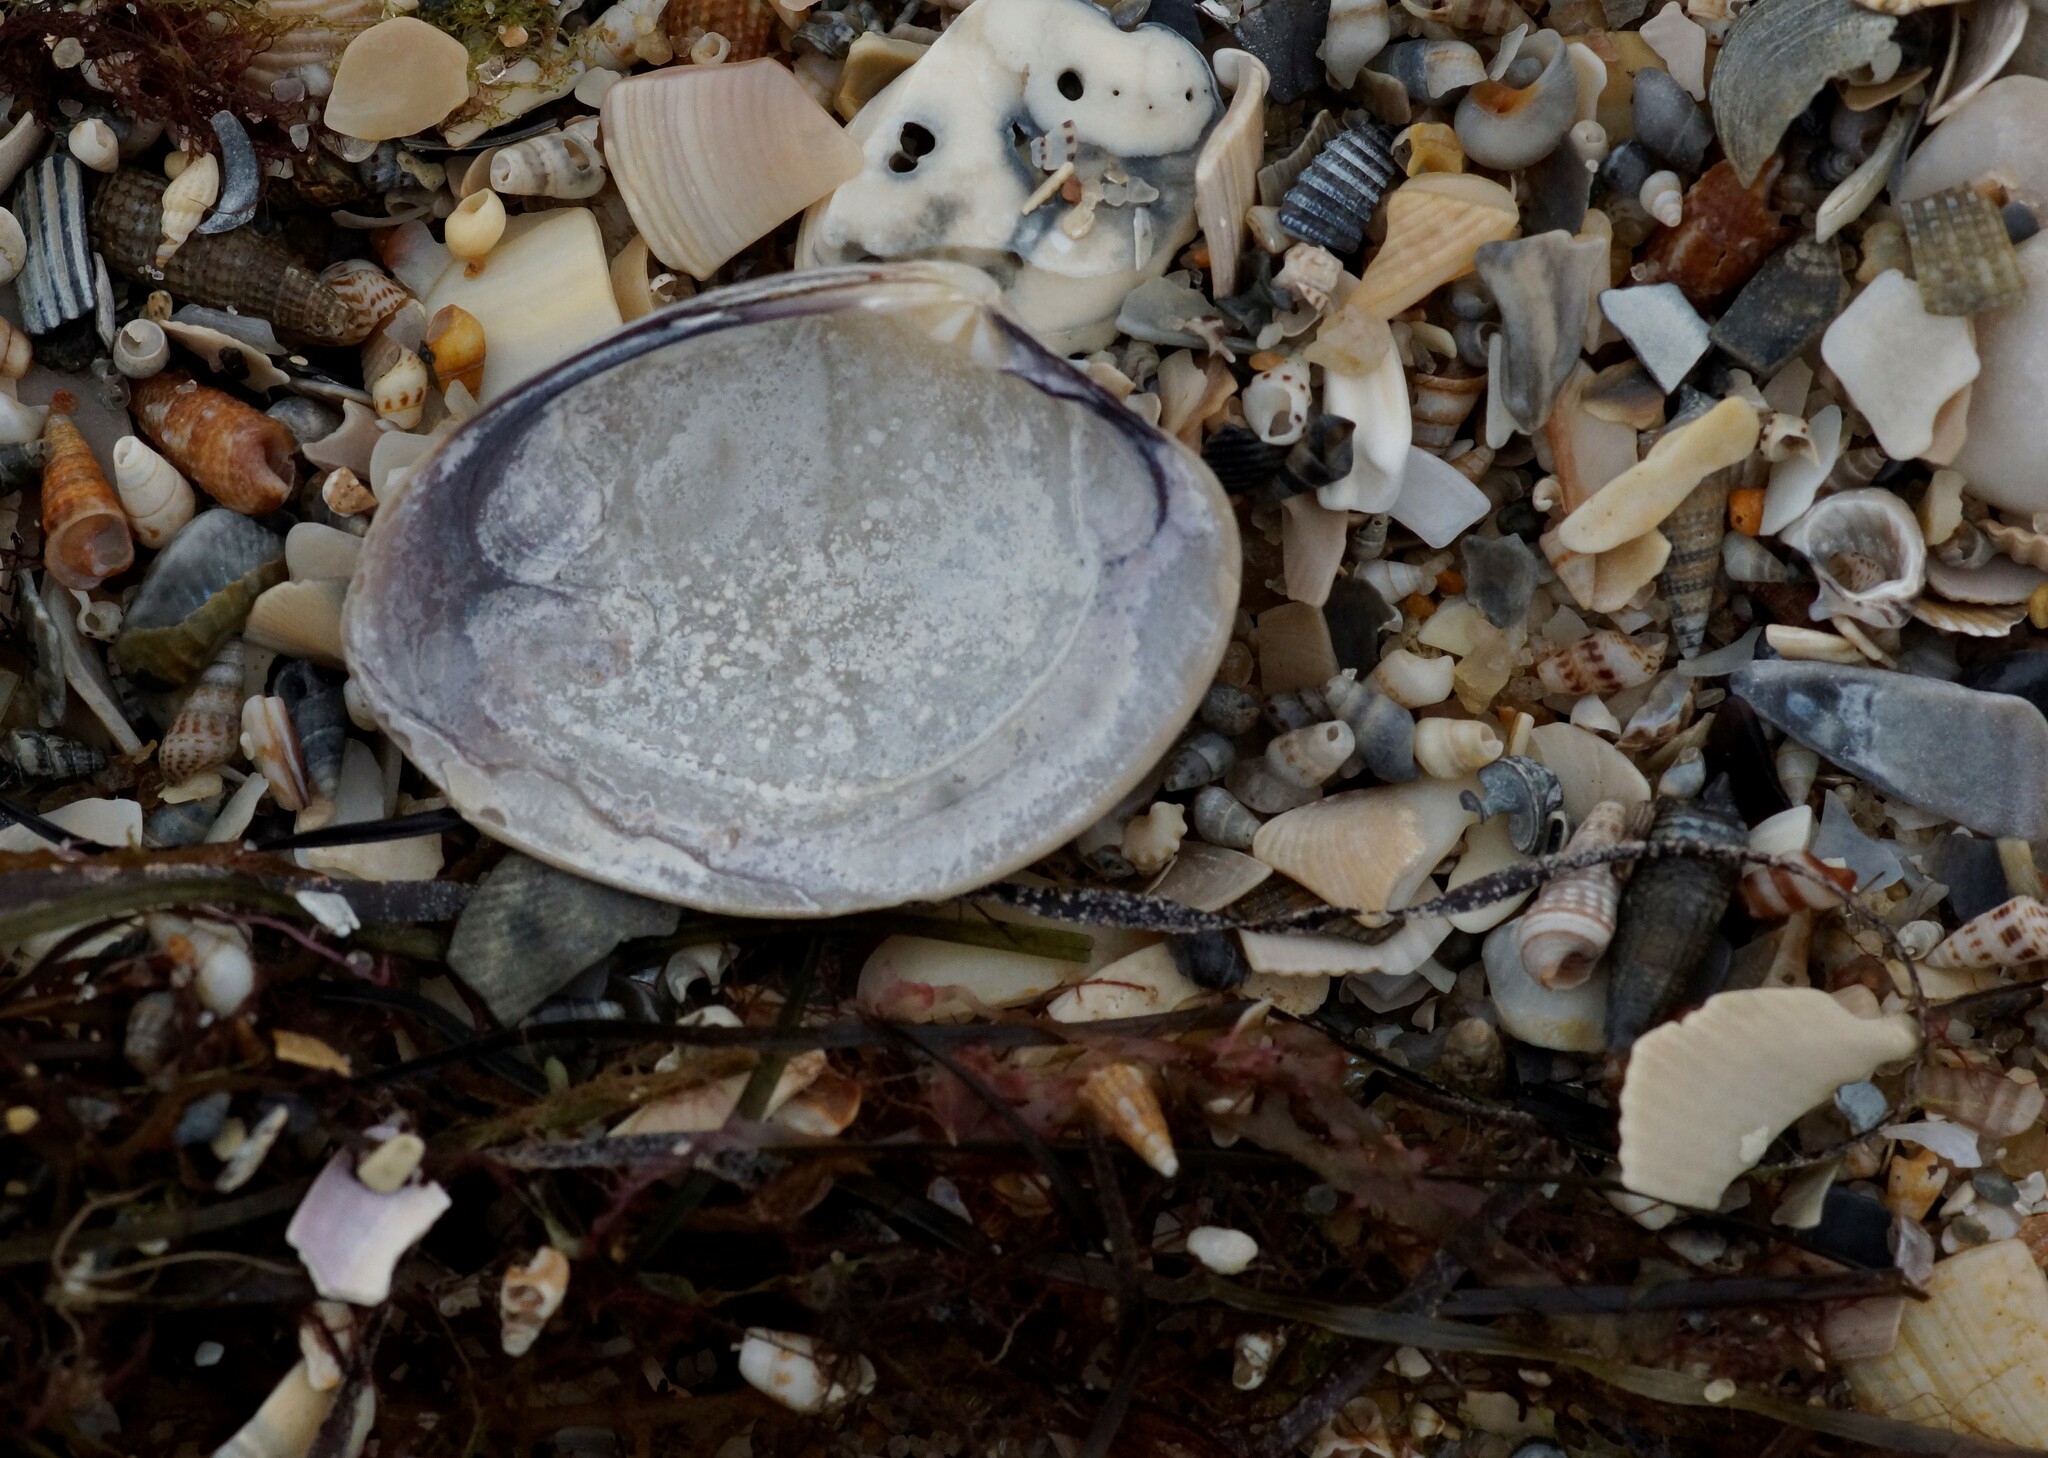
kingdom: Animalia
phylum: Mollusca
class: Bivalvia
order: Venerida
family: Veneridae
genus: Katelysia
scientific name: Katelysia rhytiphora
